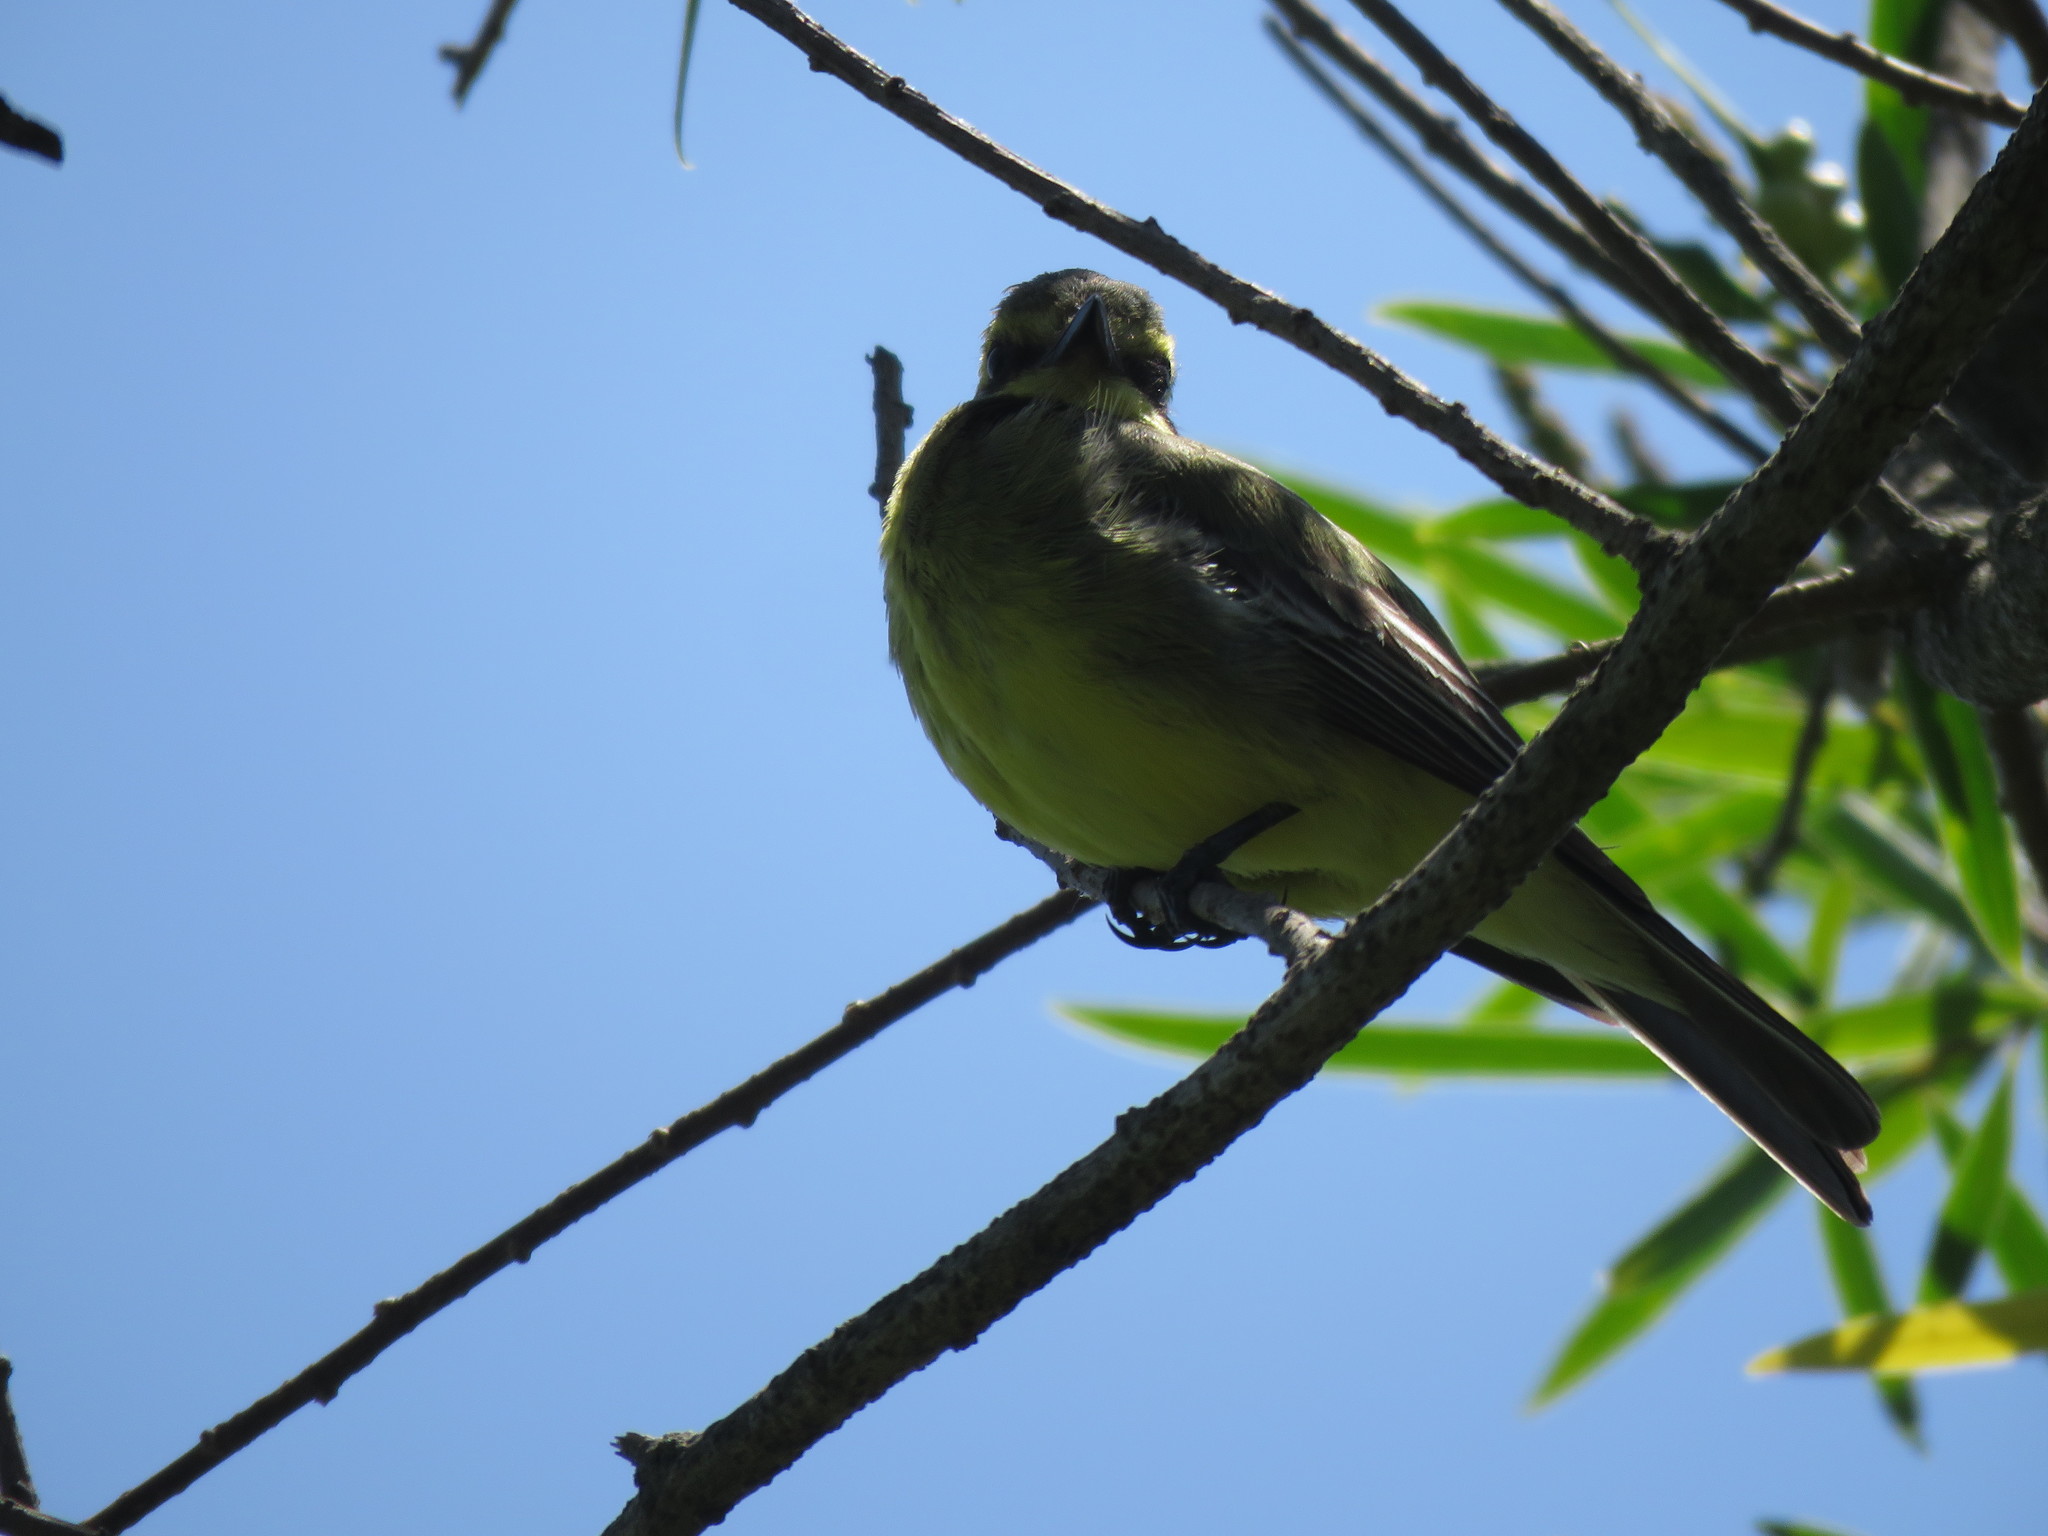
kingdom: Animalia
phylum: Chordata
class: Aves
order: Passeriformes
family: Tyrannidae
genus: Satrapa
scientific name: Satrapa icterophrys
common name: Yellow-browed tyrant
